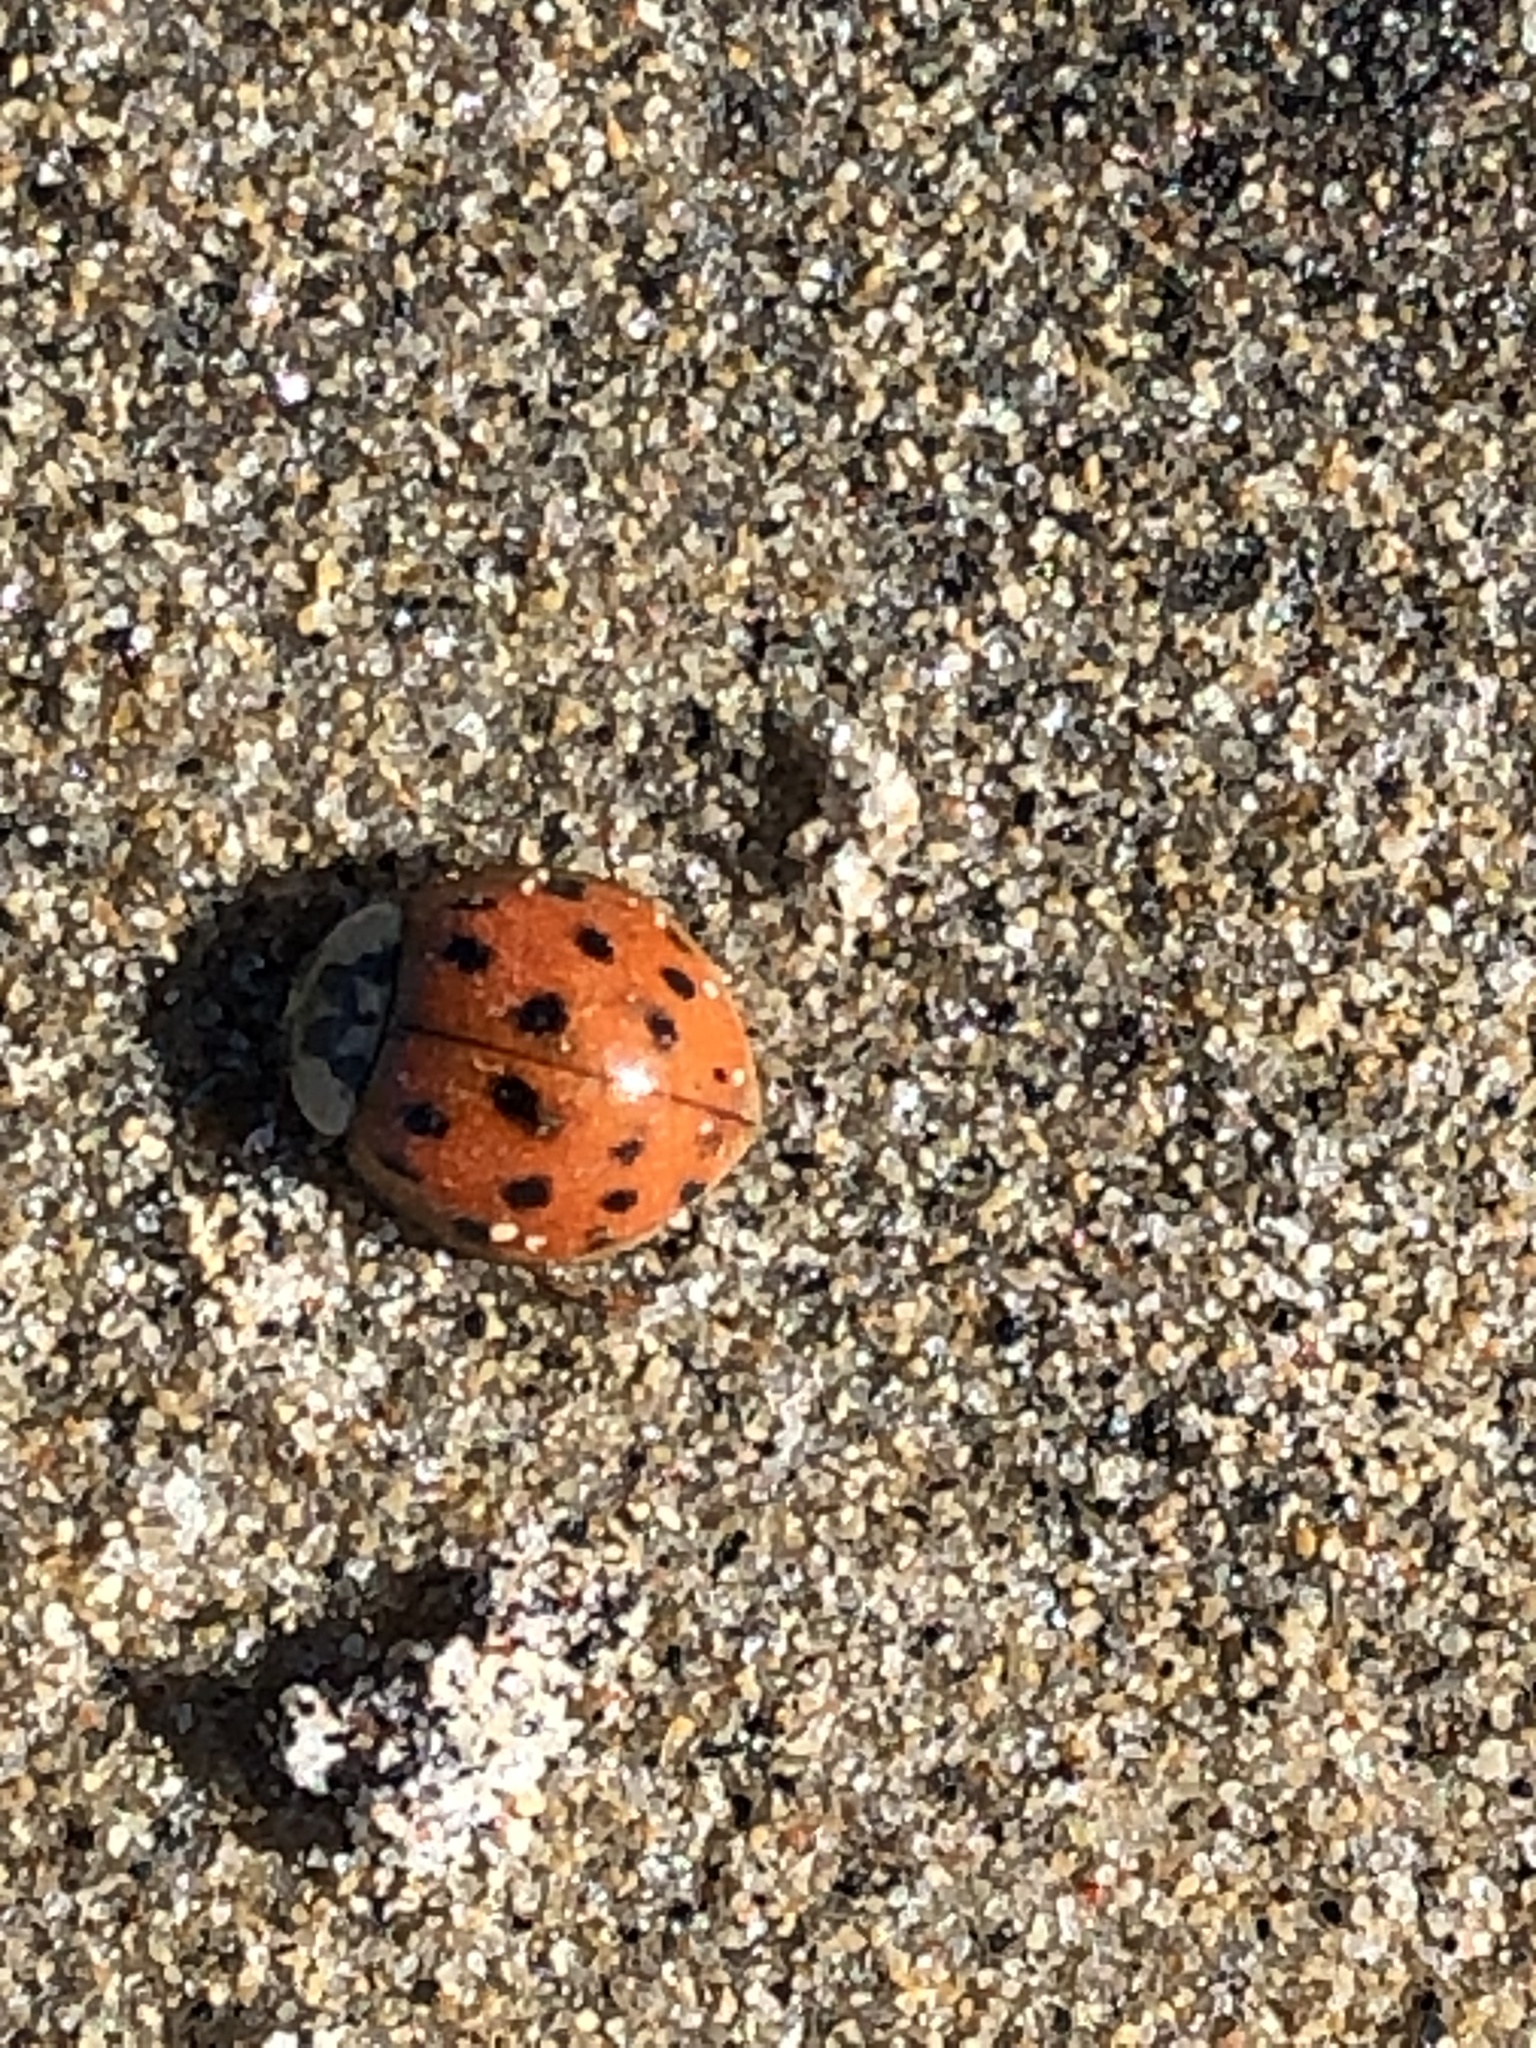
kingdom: Animalia
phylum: Arthropoda
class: Insecta
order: Coleoptera
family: Coccinellidae
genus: Harmonia
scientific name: Harmonia axyridis
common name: Harlequin ladybird
